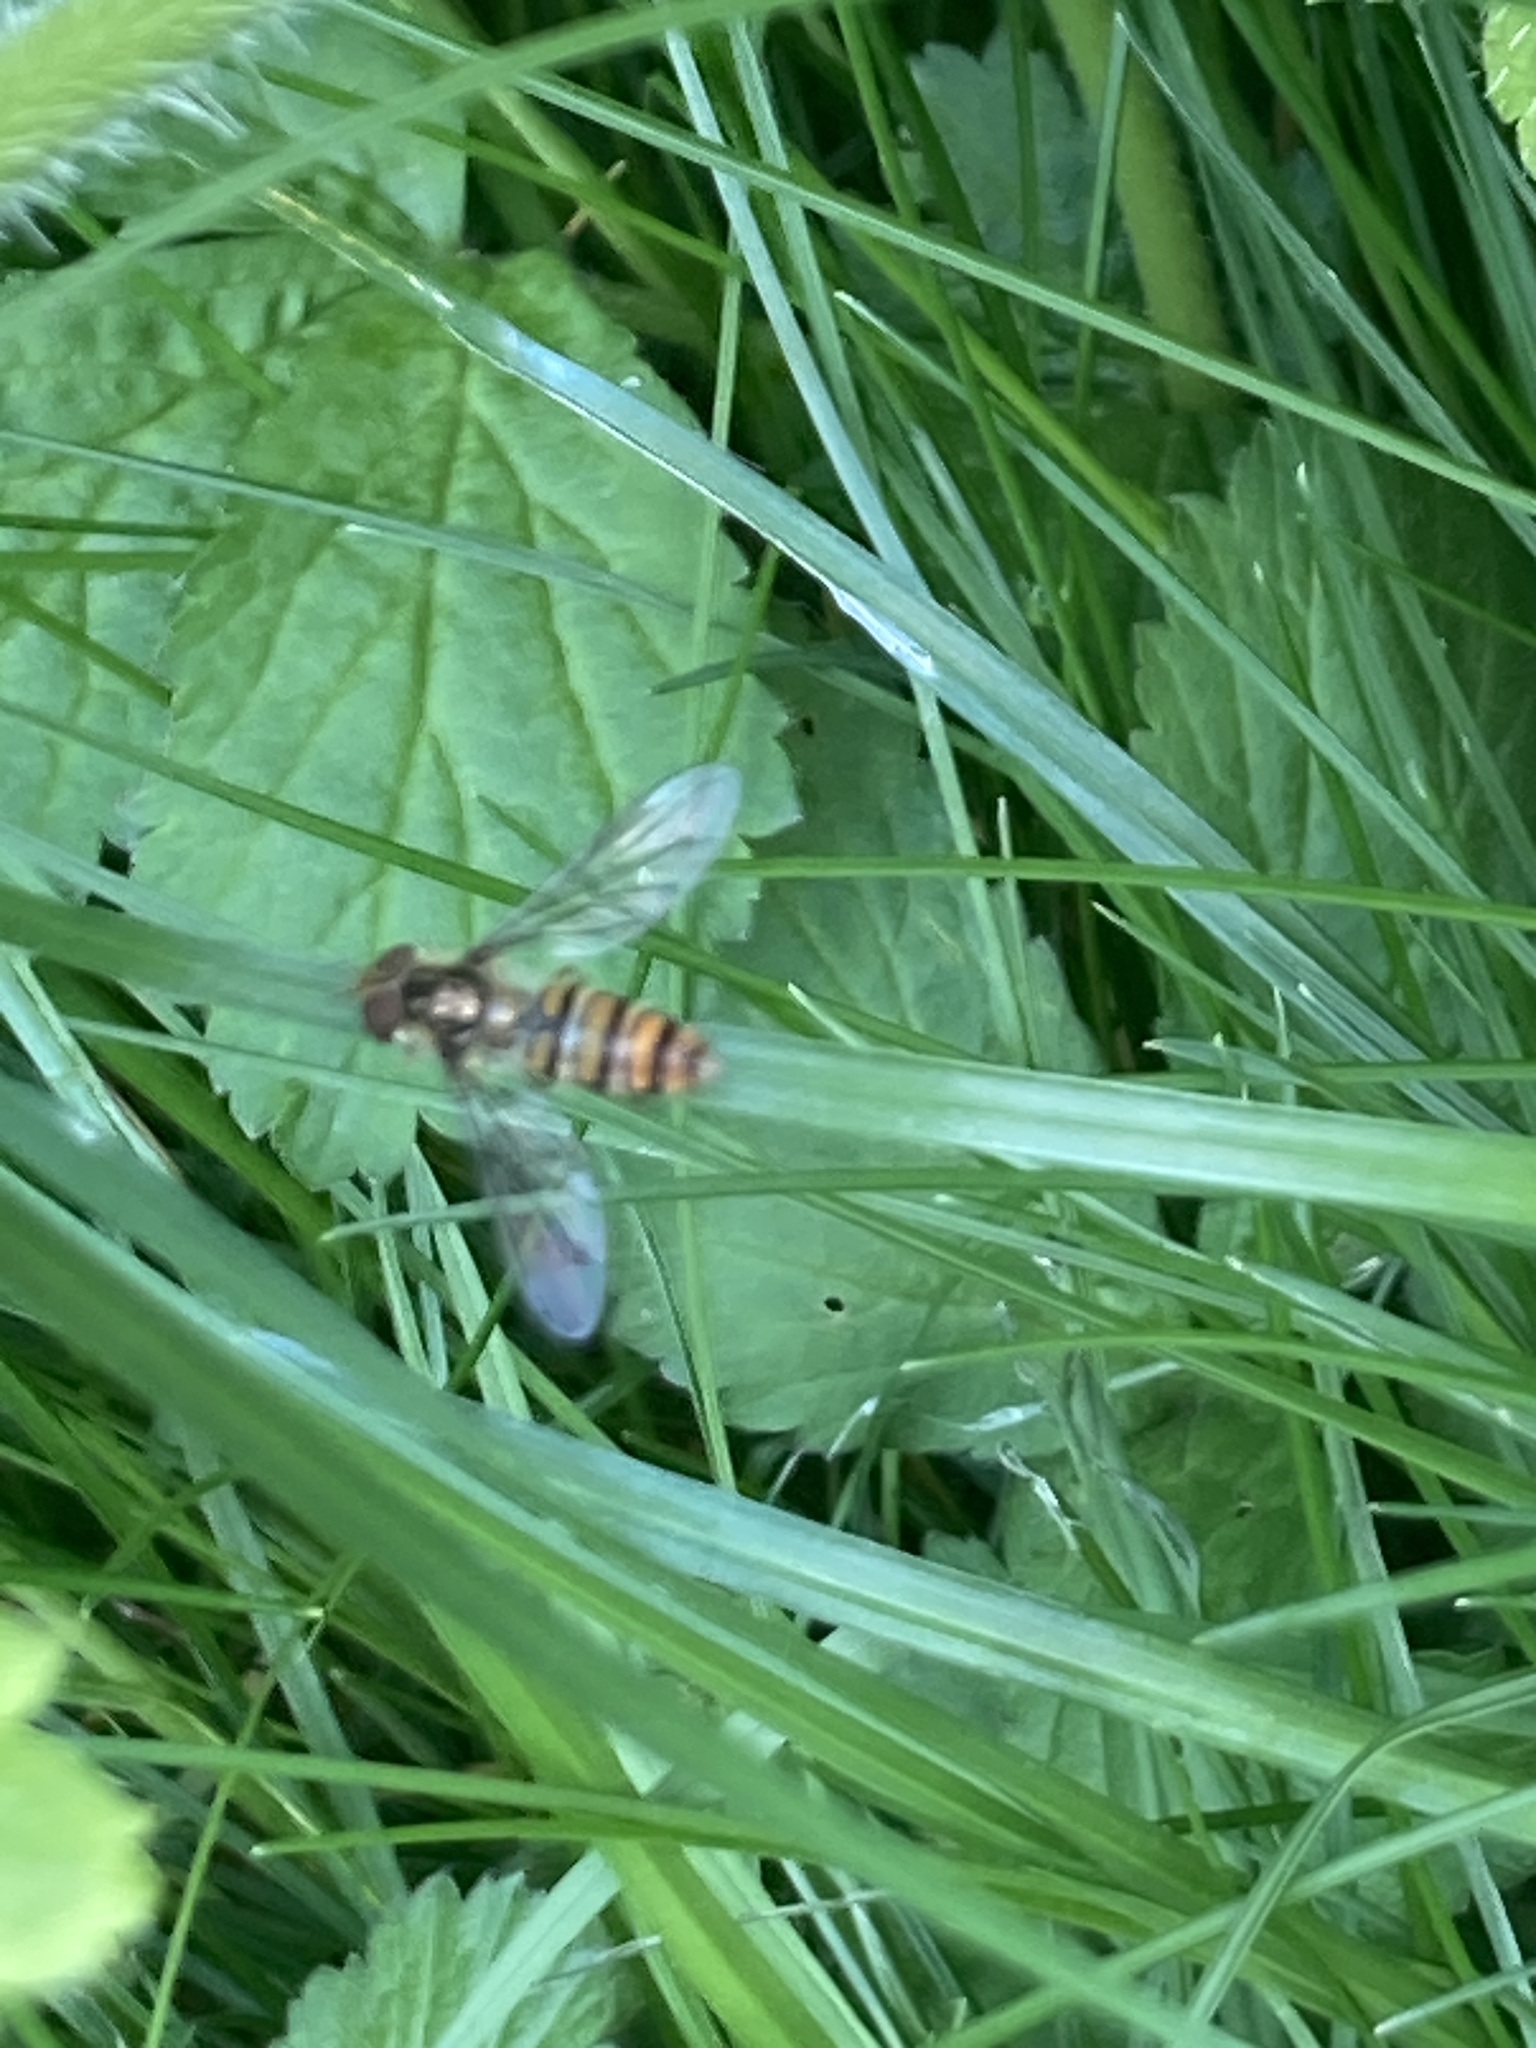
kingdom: Animalia
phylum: Arthropoda
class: Insecta
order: Diptera
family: Syrphidae
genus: Episyrphus
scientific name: Episyrphus balteatus
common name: Marmalade hoverfly
